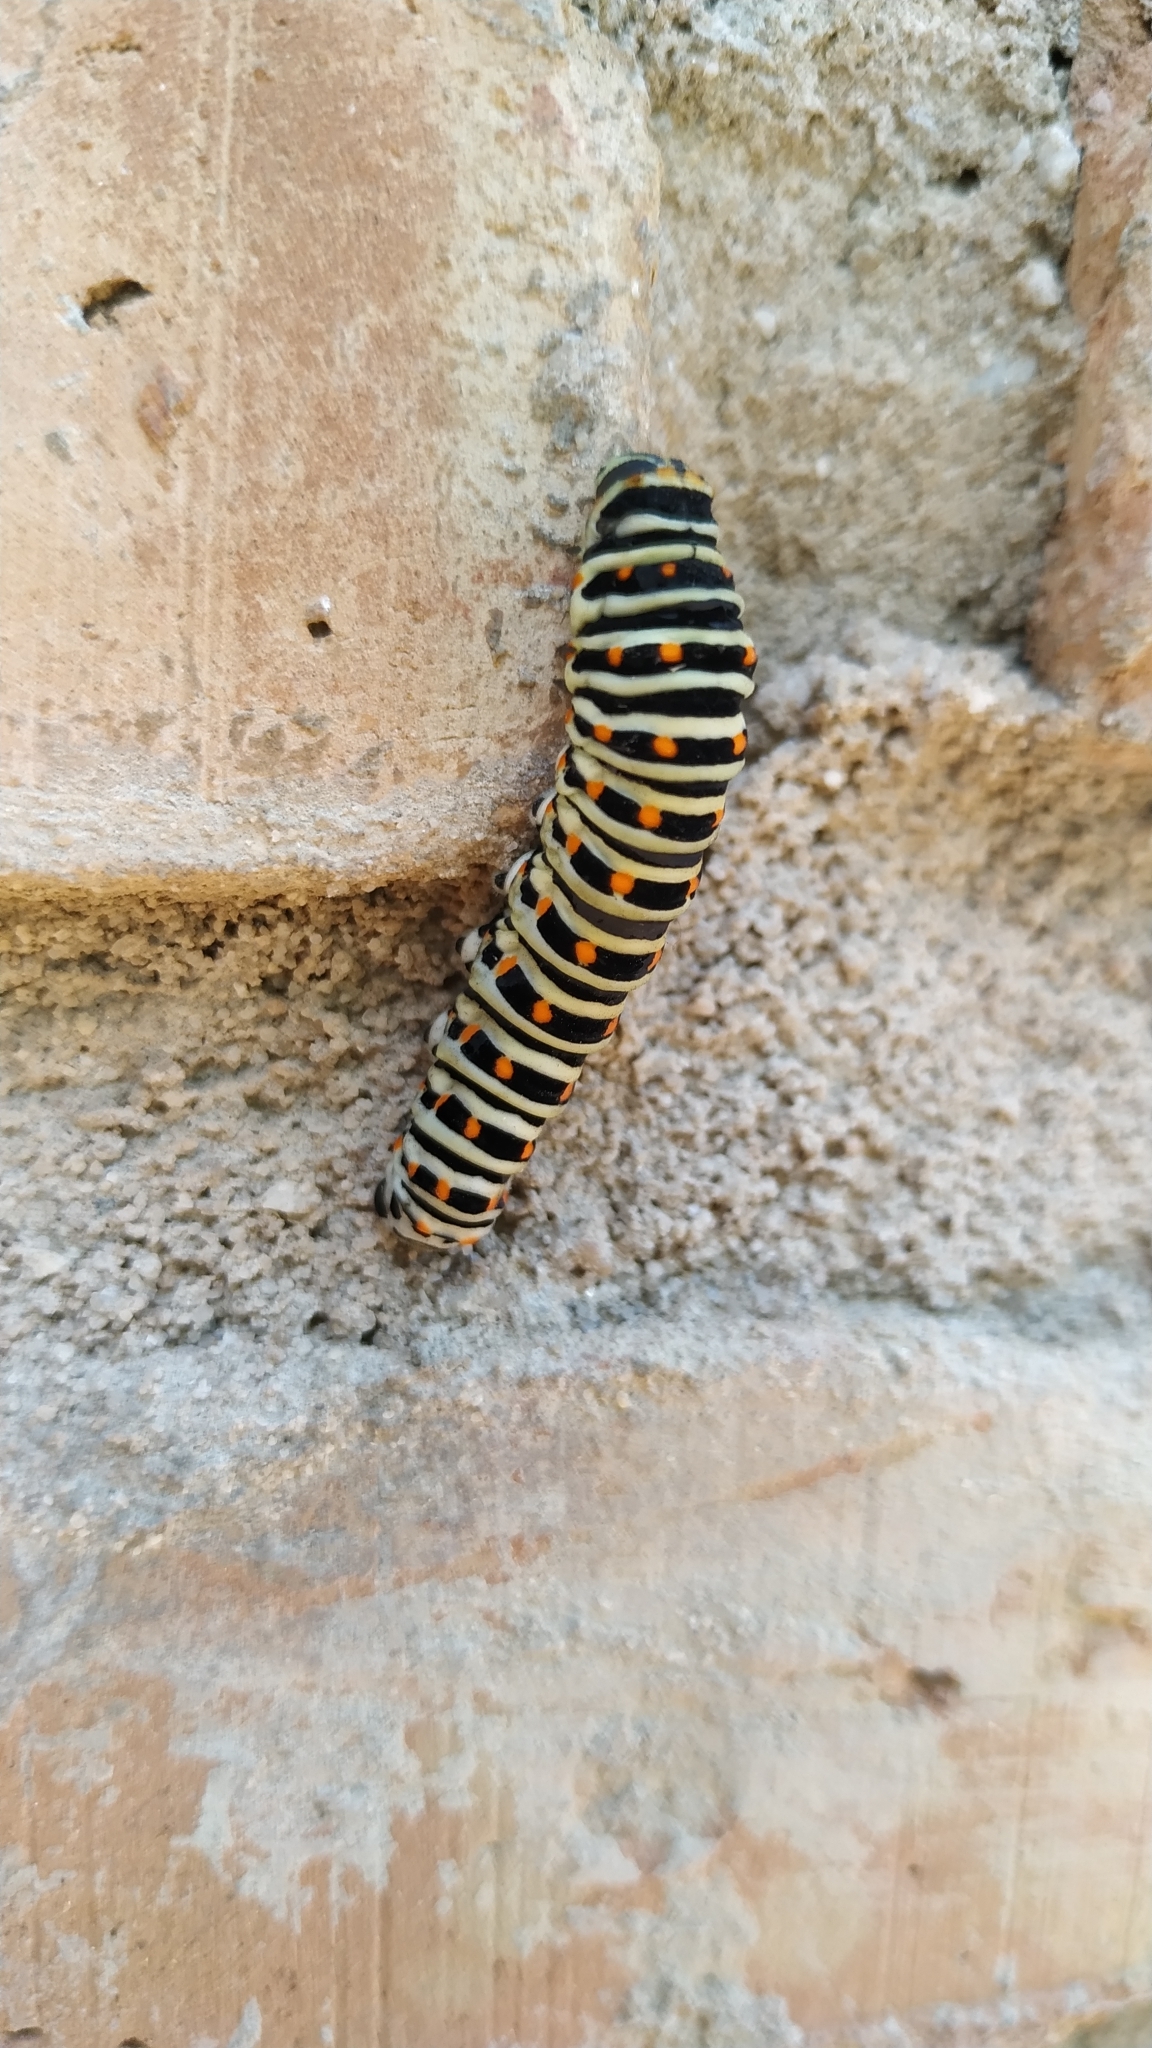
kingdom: Animalia
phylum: Arthropoda
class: Insecta
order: Lepidoptera
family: Papilionidae
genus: Papilio
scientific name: Papilio machaon
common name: Swallowtail
